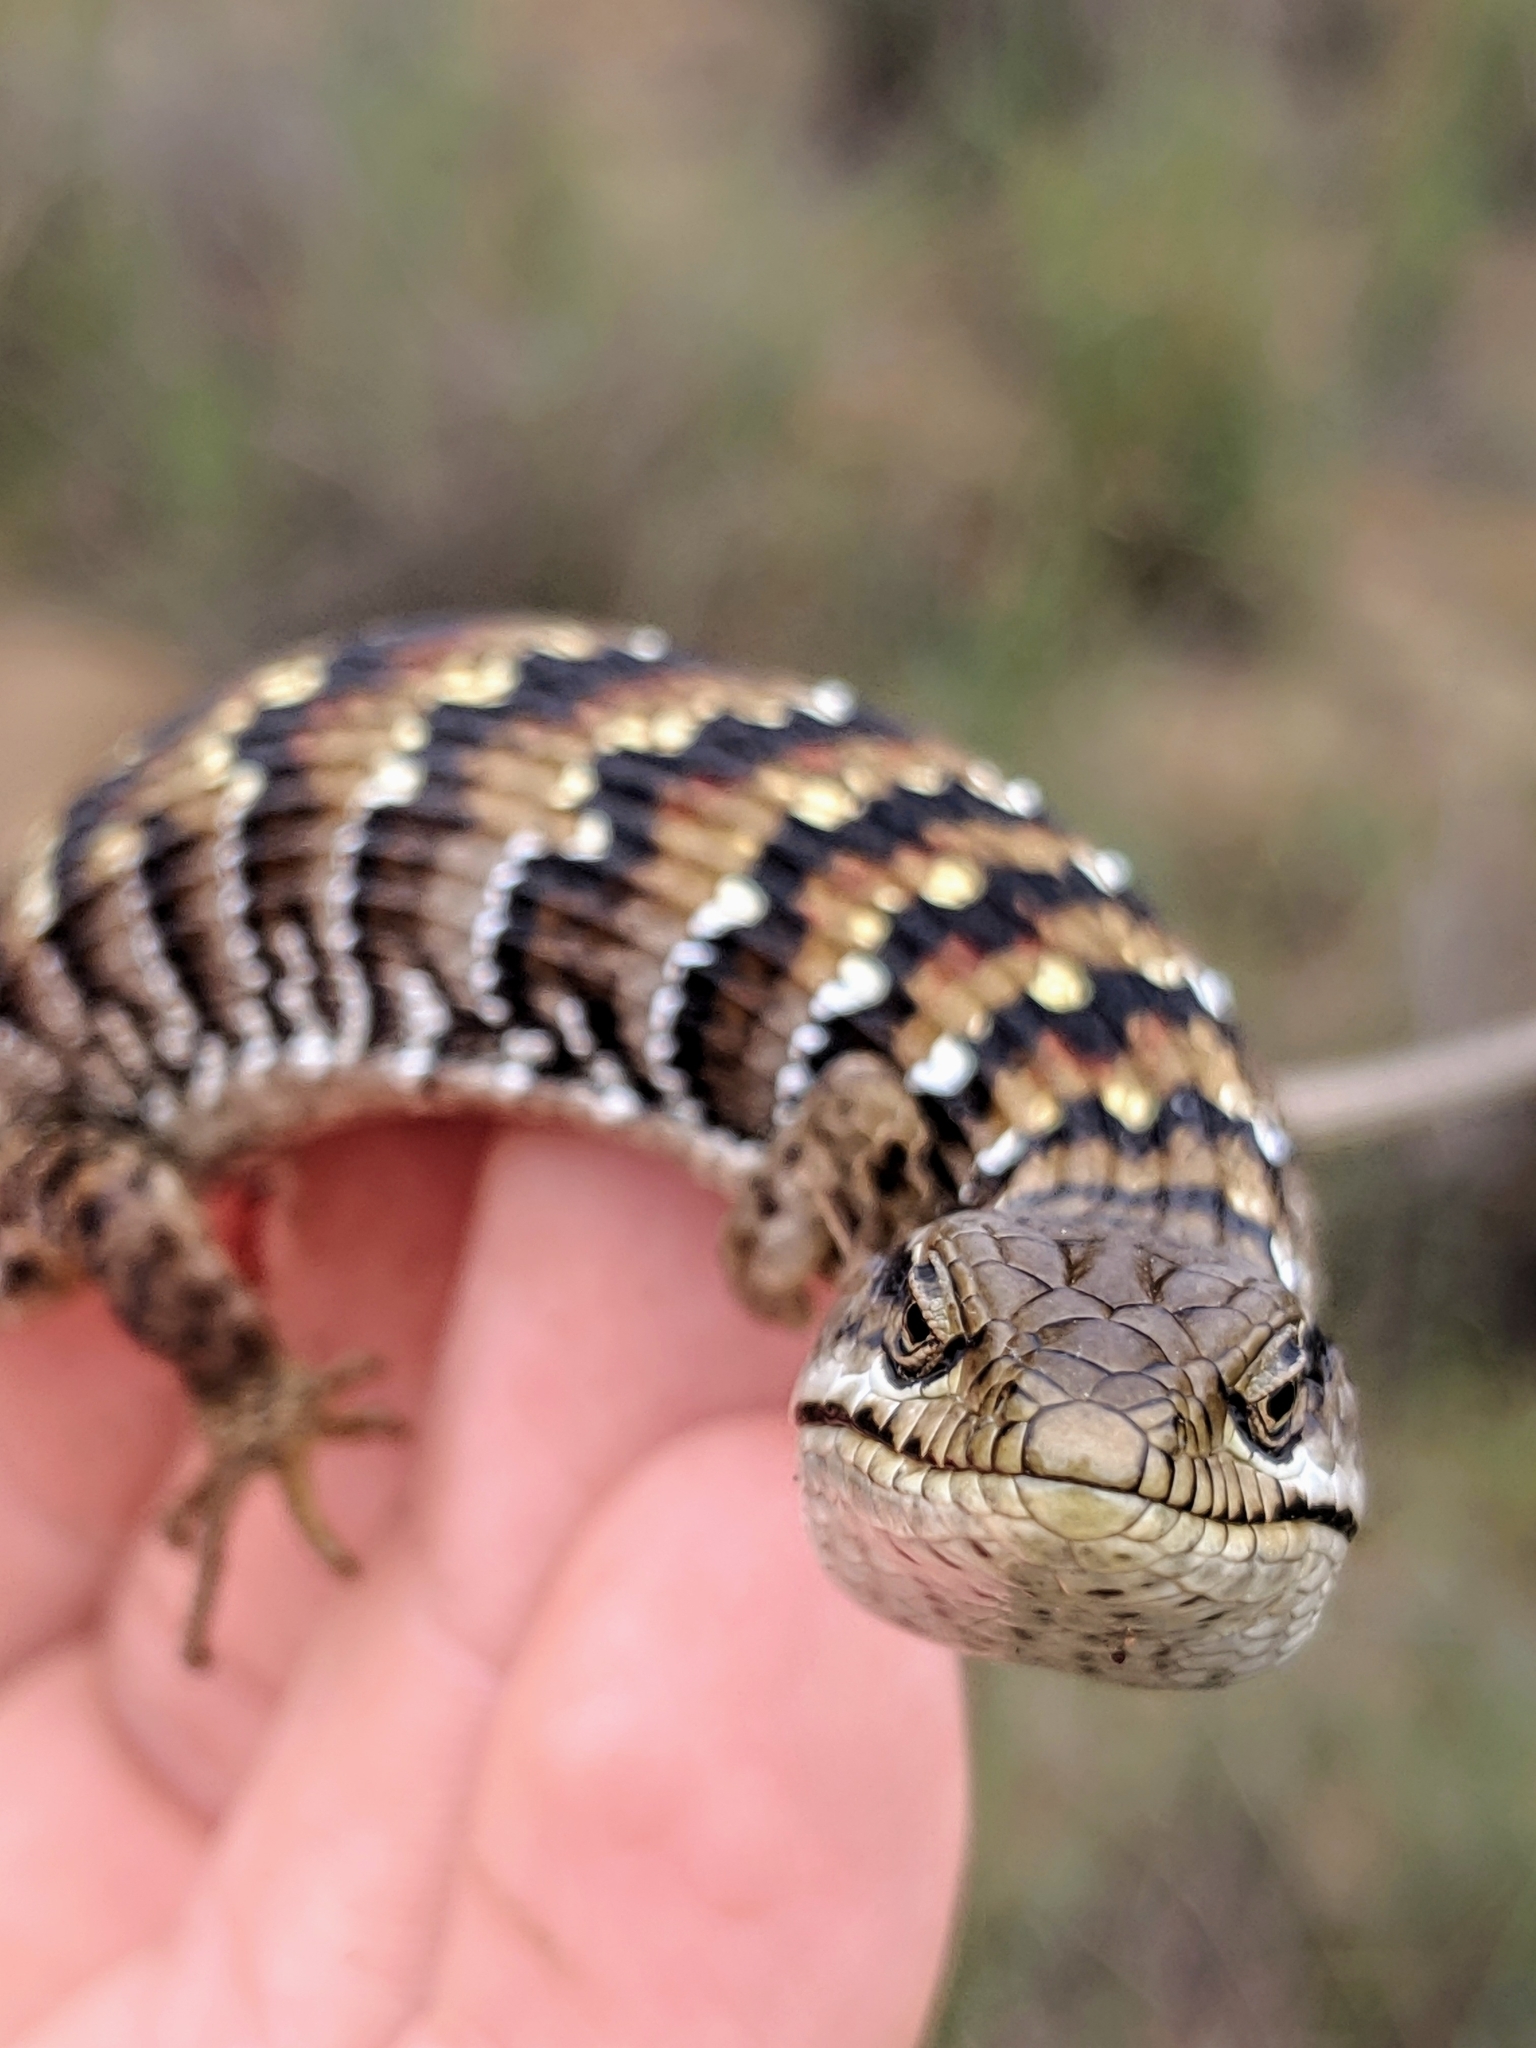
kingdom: Animalia
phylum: Chordata
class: Squamata
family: Anguidae
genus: Elgaria
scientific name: Elgaria multicarinata
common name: Southern alligator lizard
